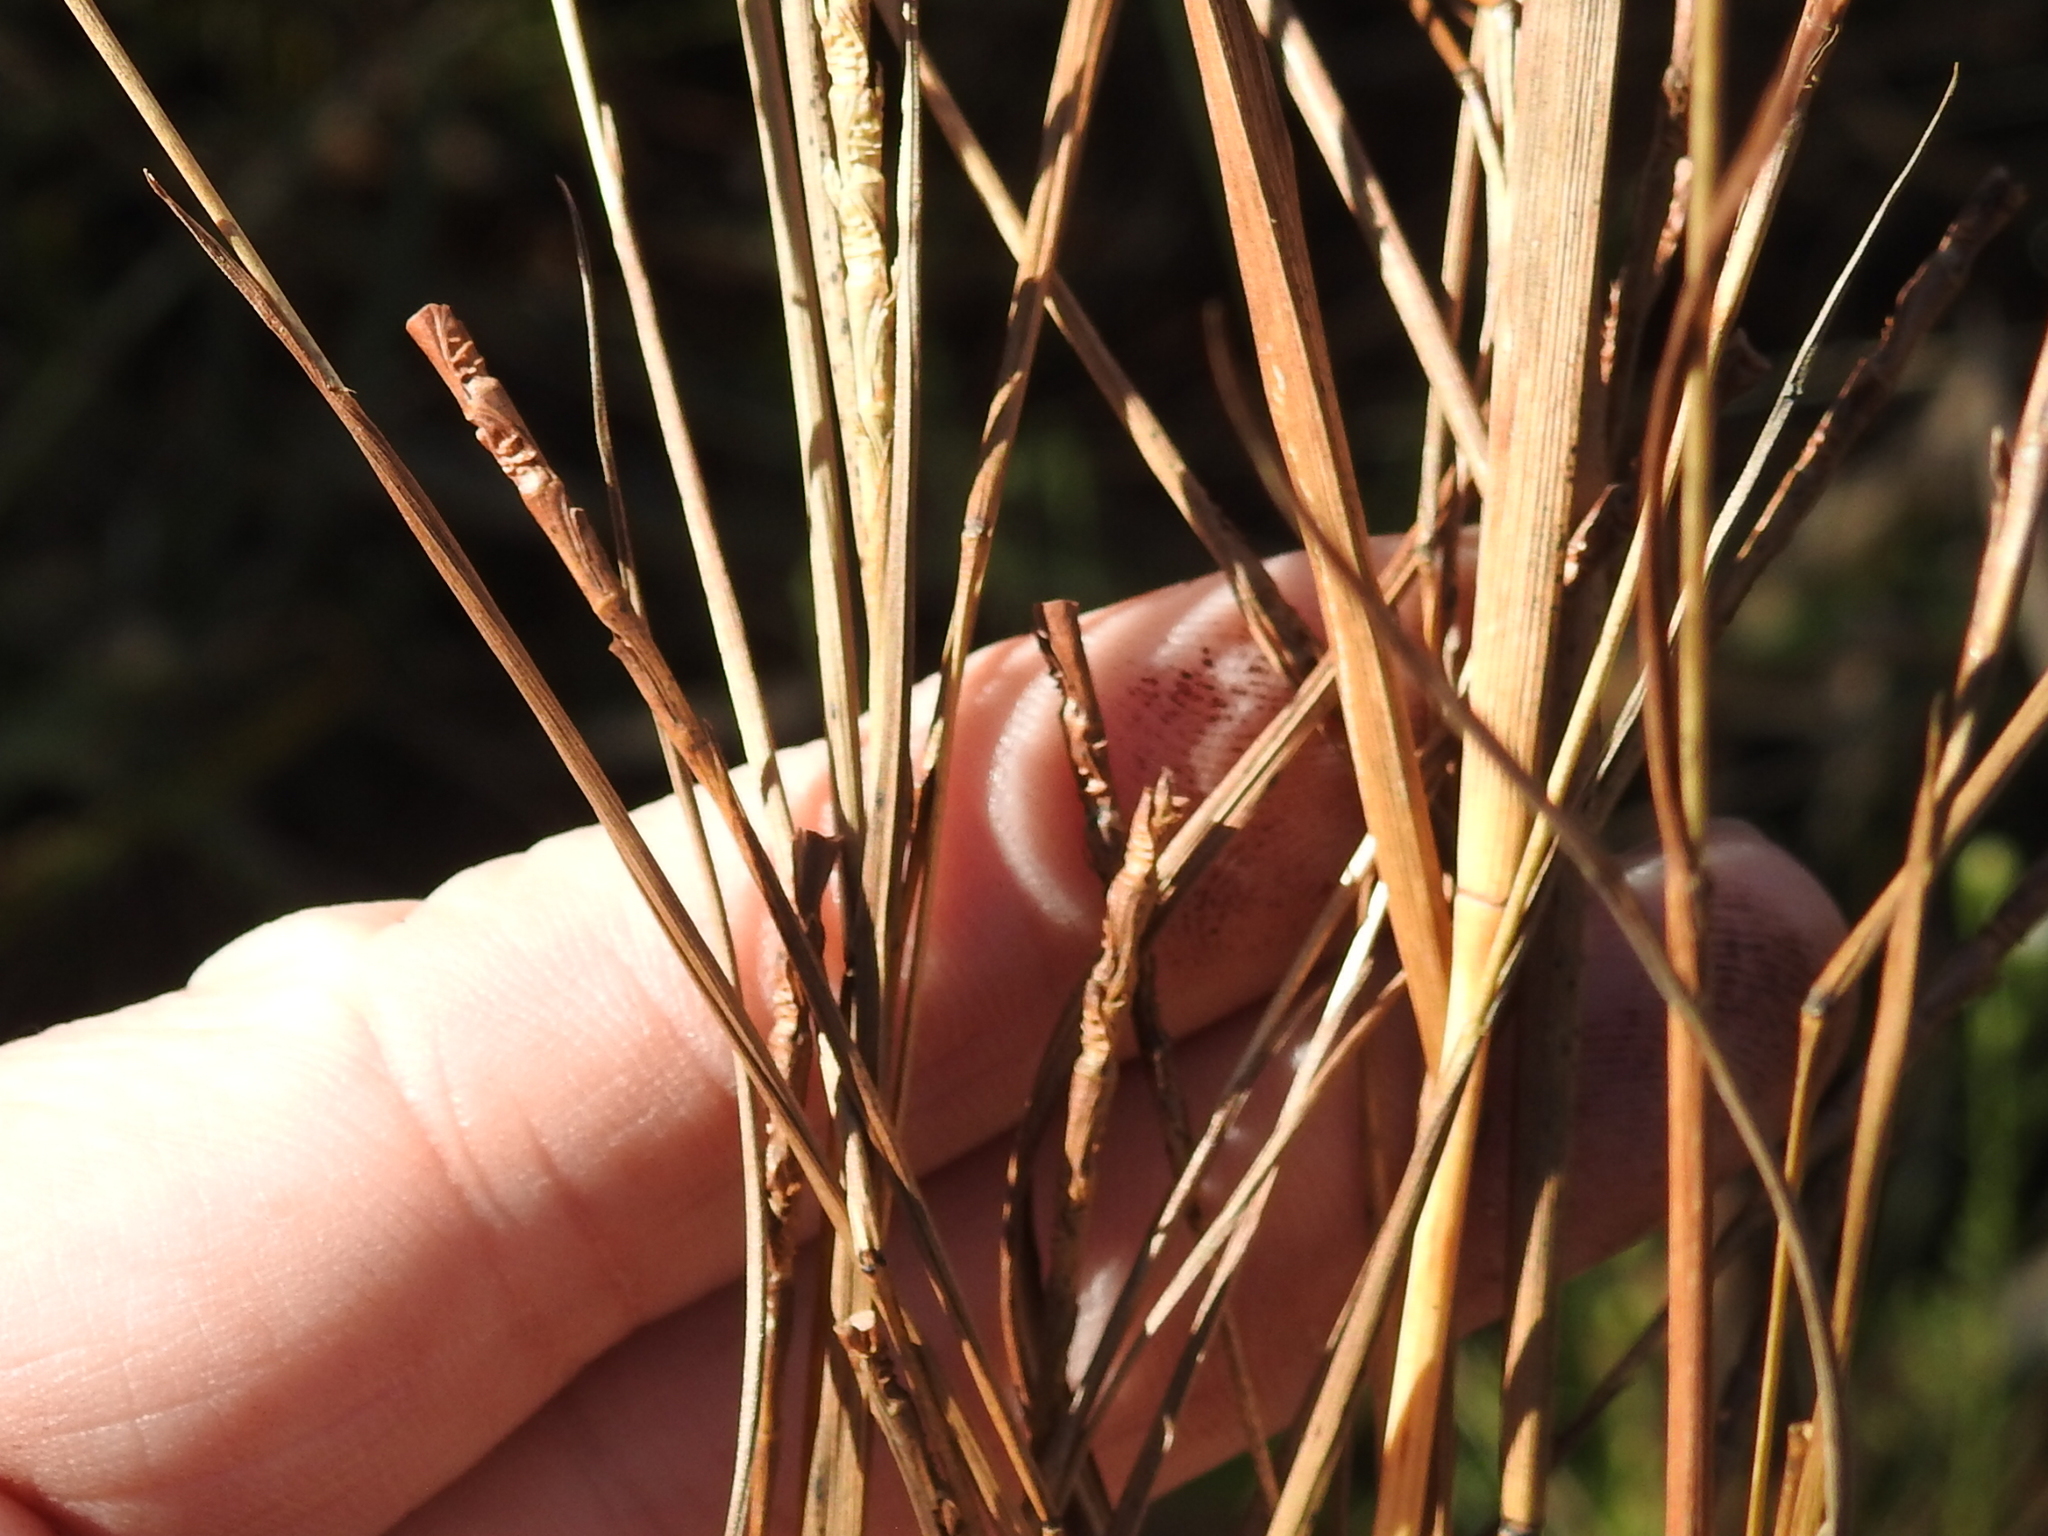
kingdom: Plantae
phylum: Tracheophyta
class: Liliopsida
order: Poales
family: Poaceae
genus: Rottboellia
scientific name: Rottboellia rugosa
